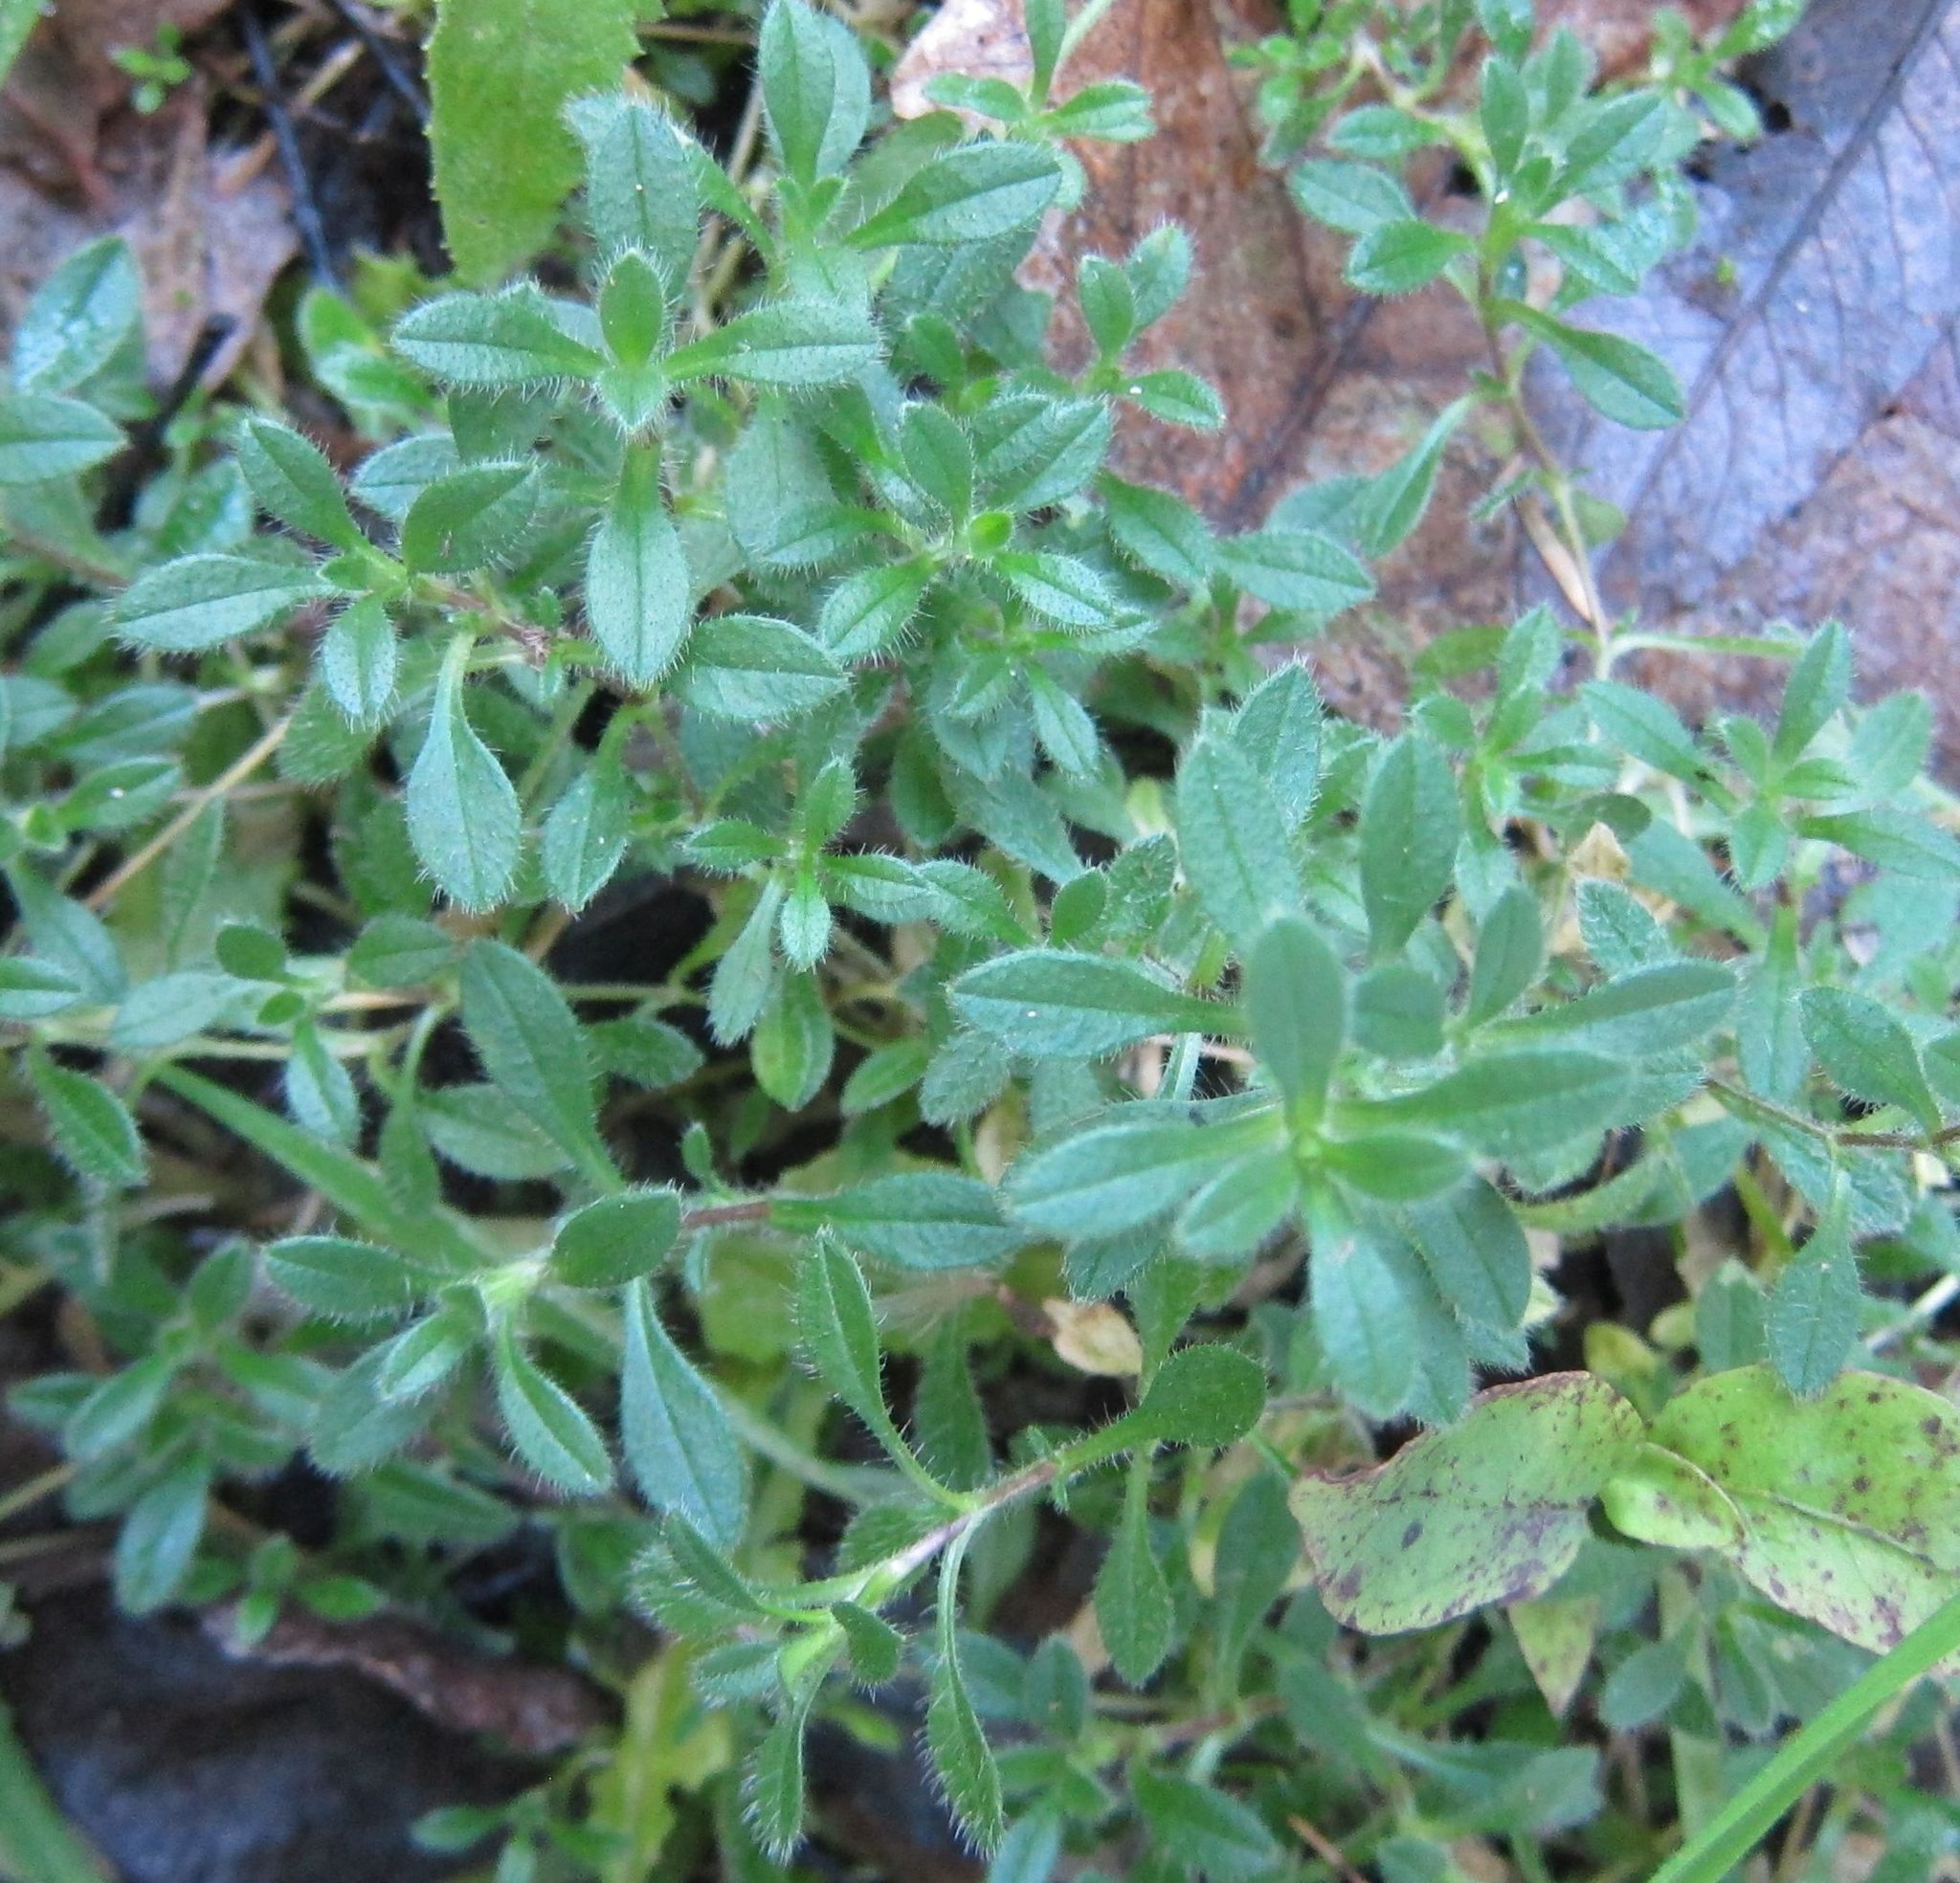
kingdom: Plantae
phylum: Tracheophyta
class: Magnoliopsida
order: Caryophyllales
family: Caryophyllaceae
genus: Cerastium
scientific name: Cerastium fontanum
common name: Common mouse-ear
